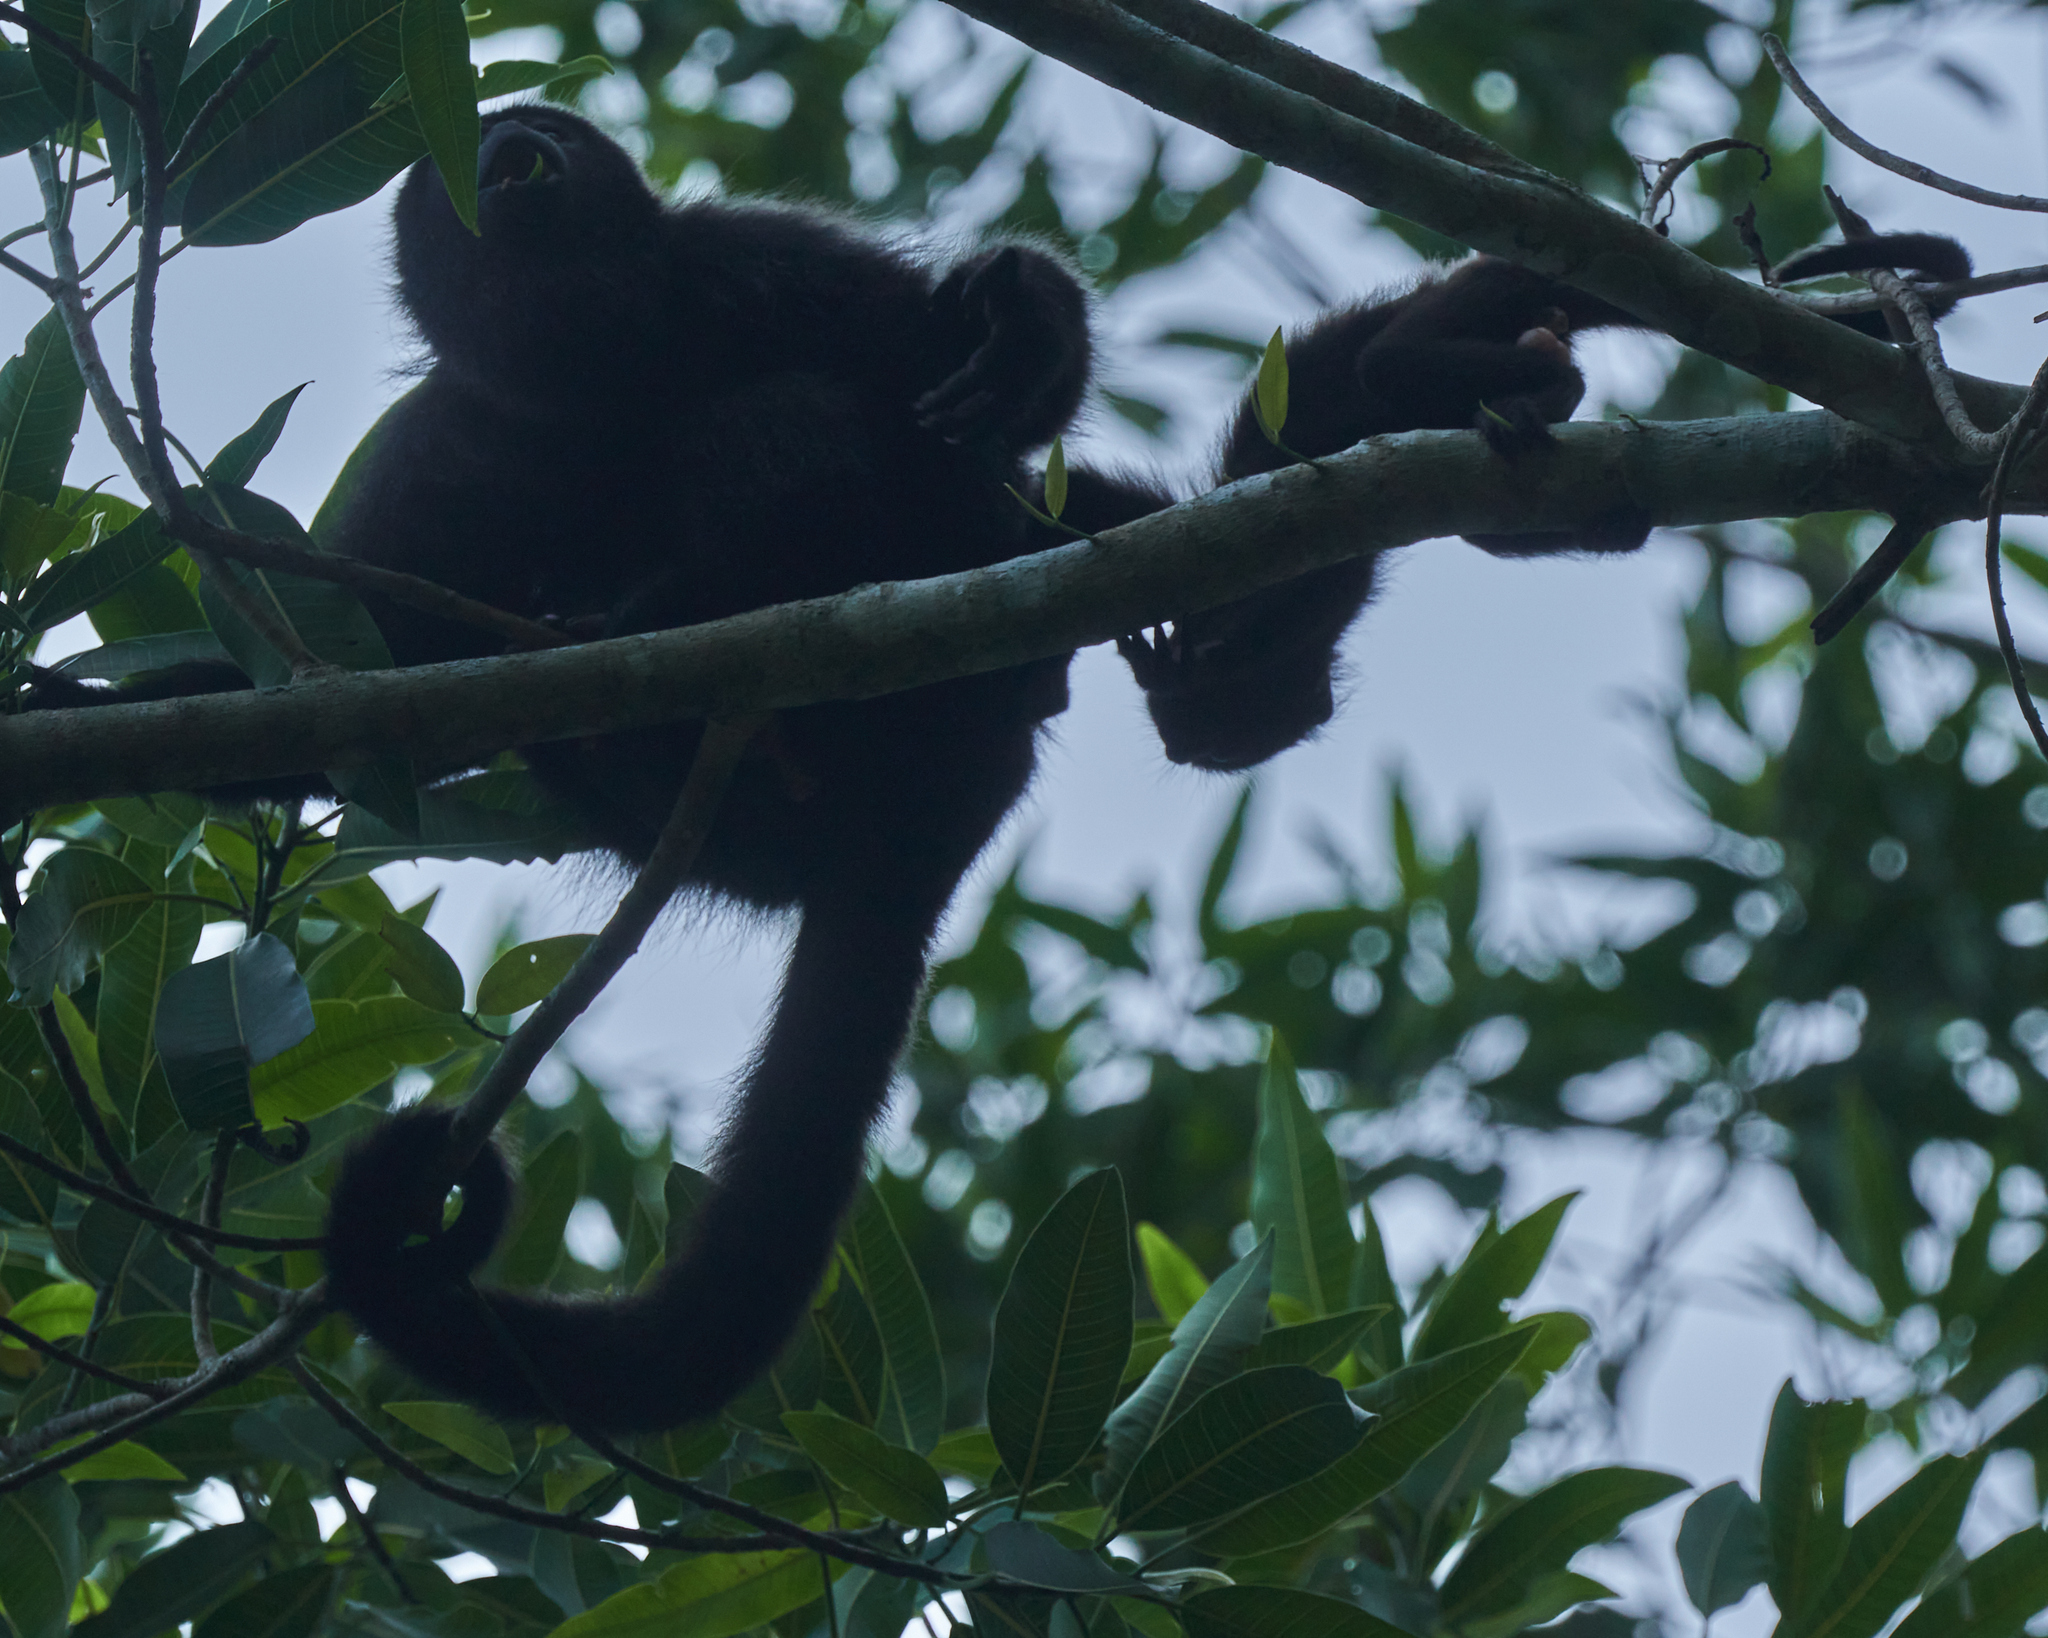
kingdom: Animalia
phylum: Chordata
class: Mammalia
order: Primates
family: Atelidae
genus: Alouatta
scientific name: Alouatta pigra
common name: Guatemalan black howler
